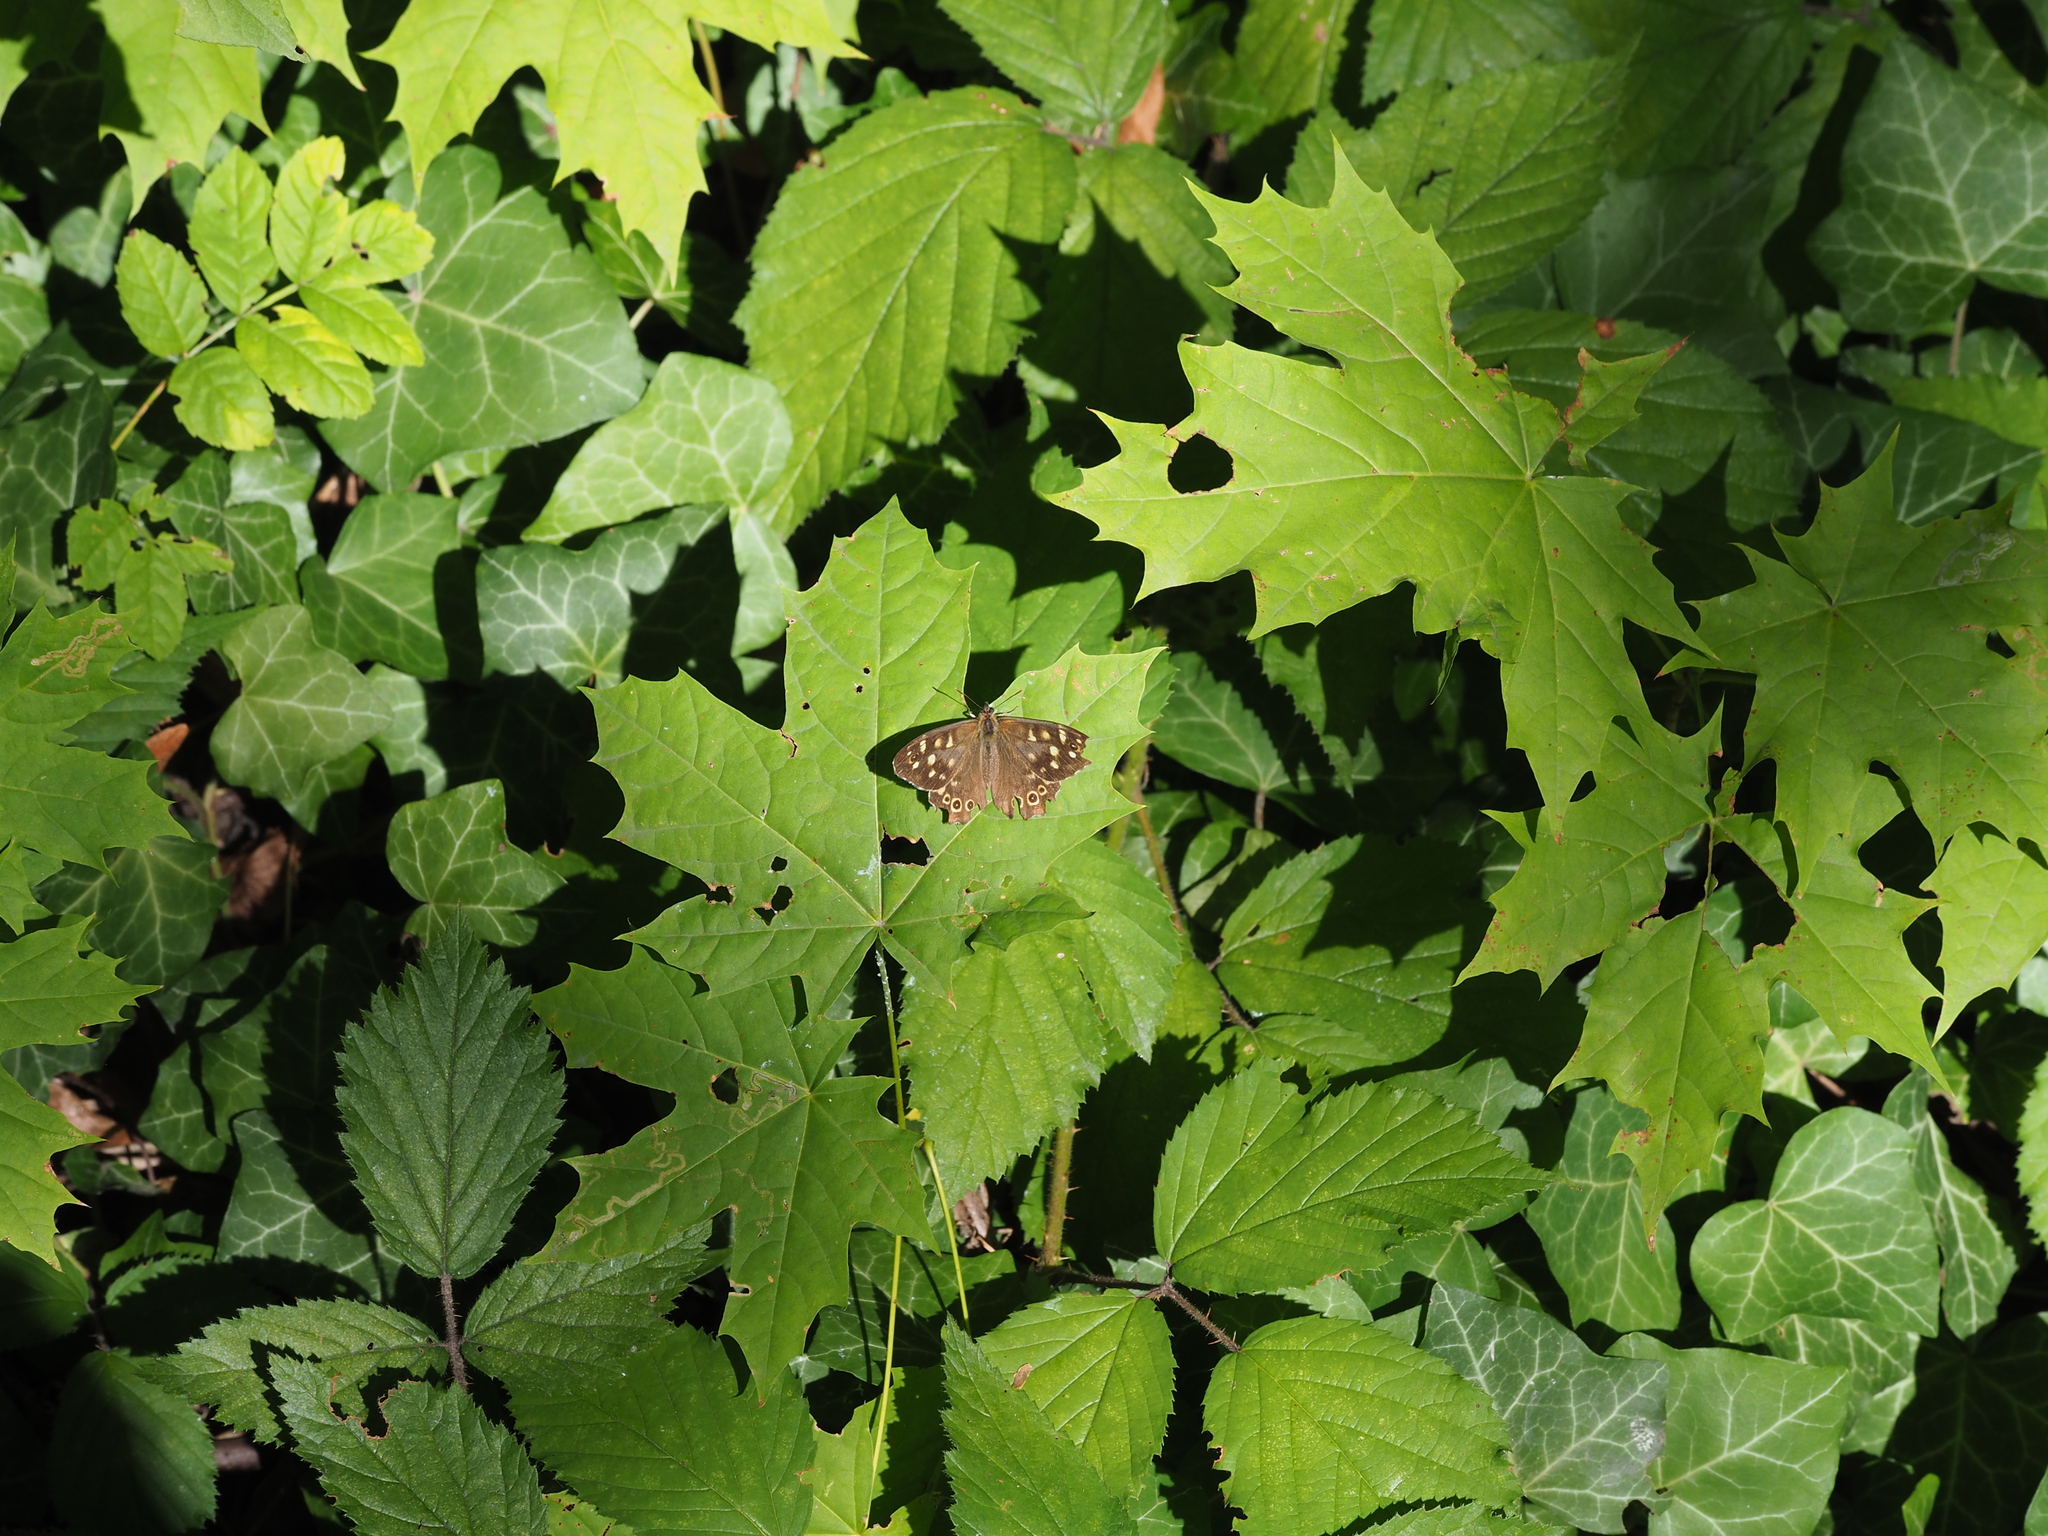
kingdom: Animalia
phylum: Arthropoda
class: Insecta
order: Lepidoptera
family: Nymphalidae
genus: Pararge
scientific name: Pararge aegeria
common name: Speckled wood
